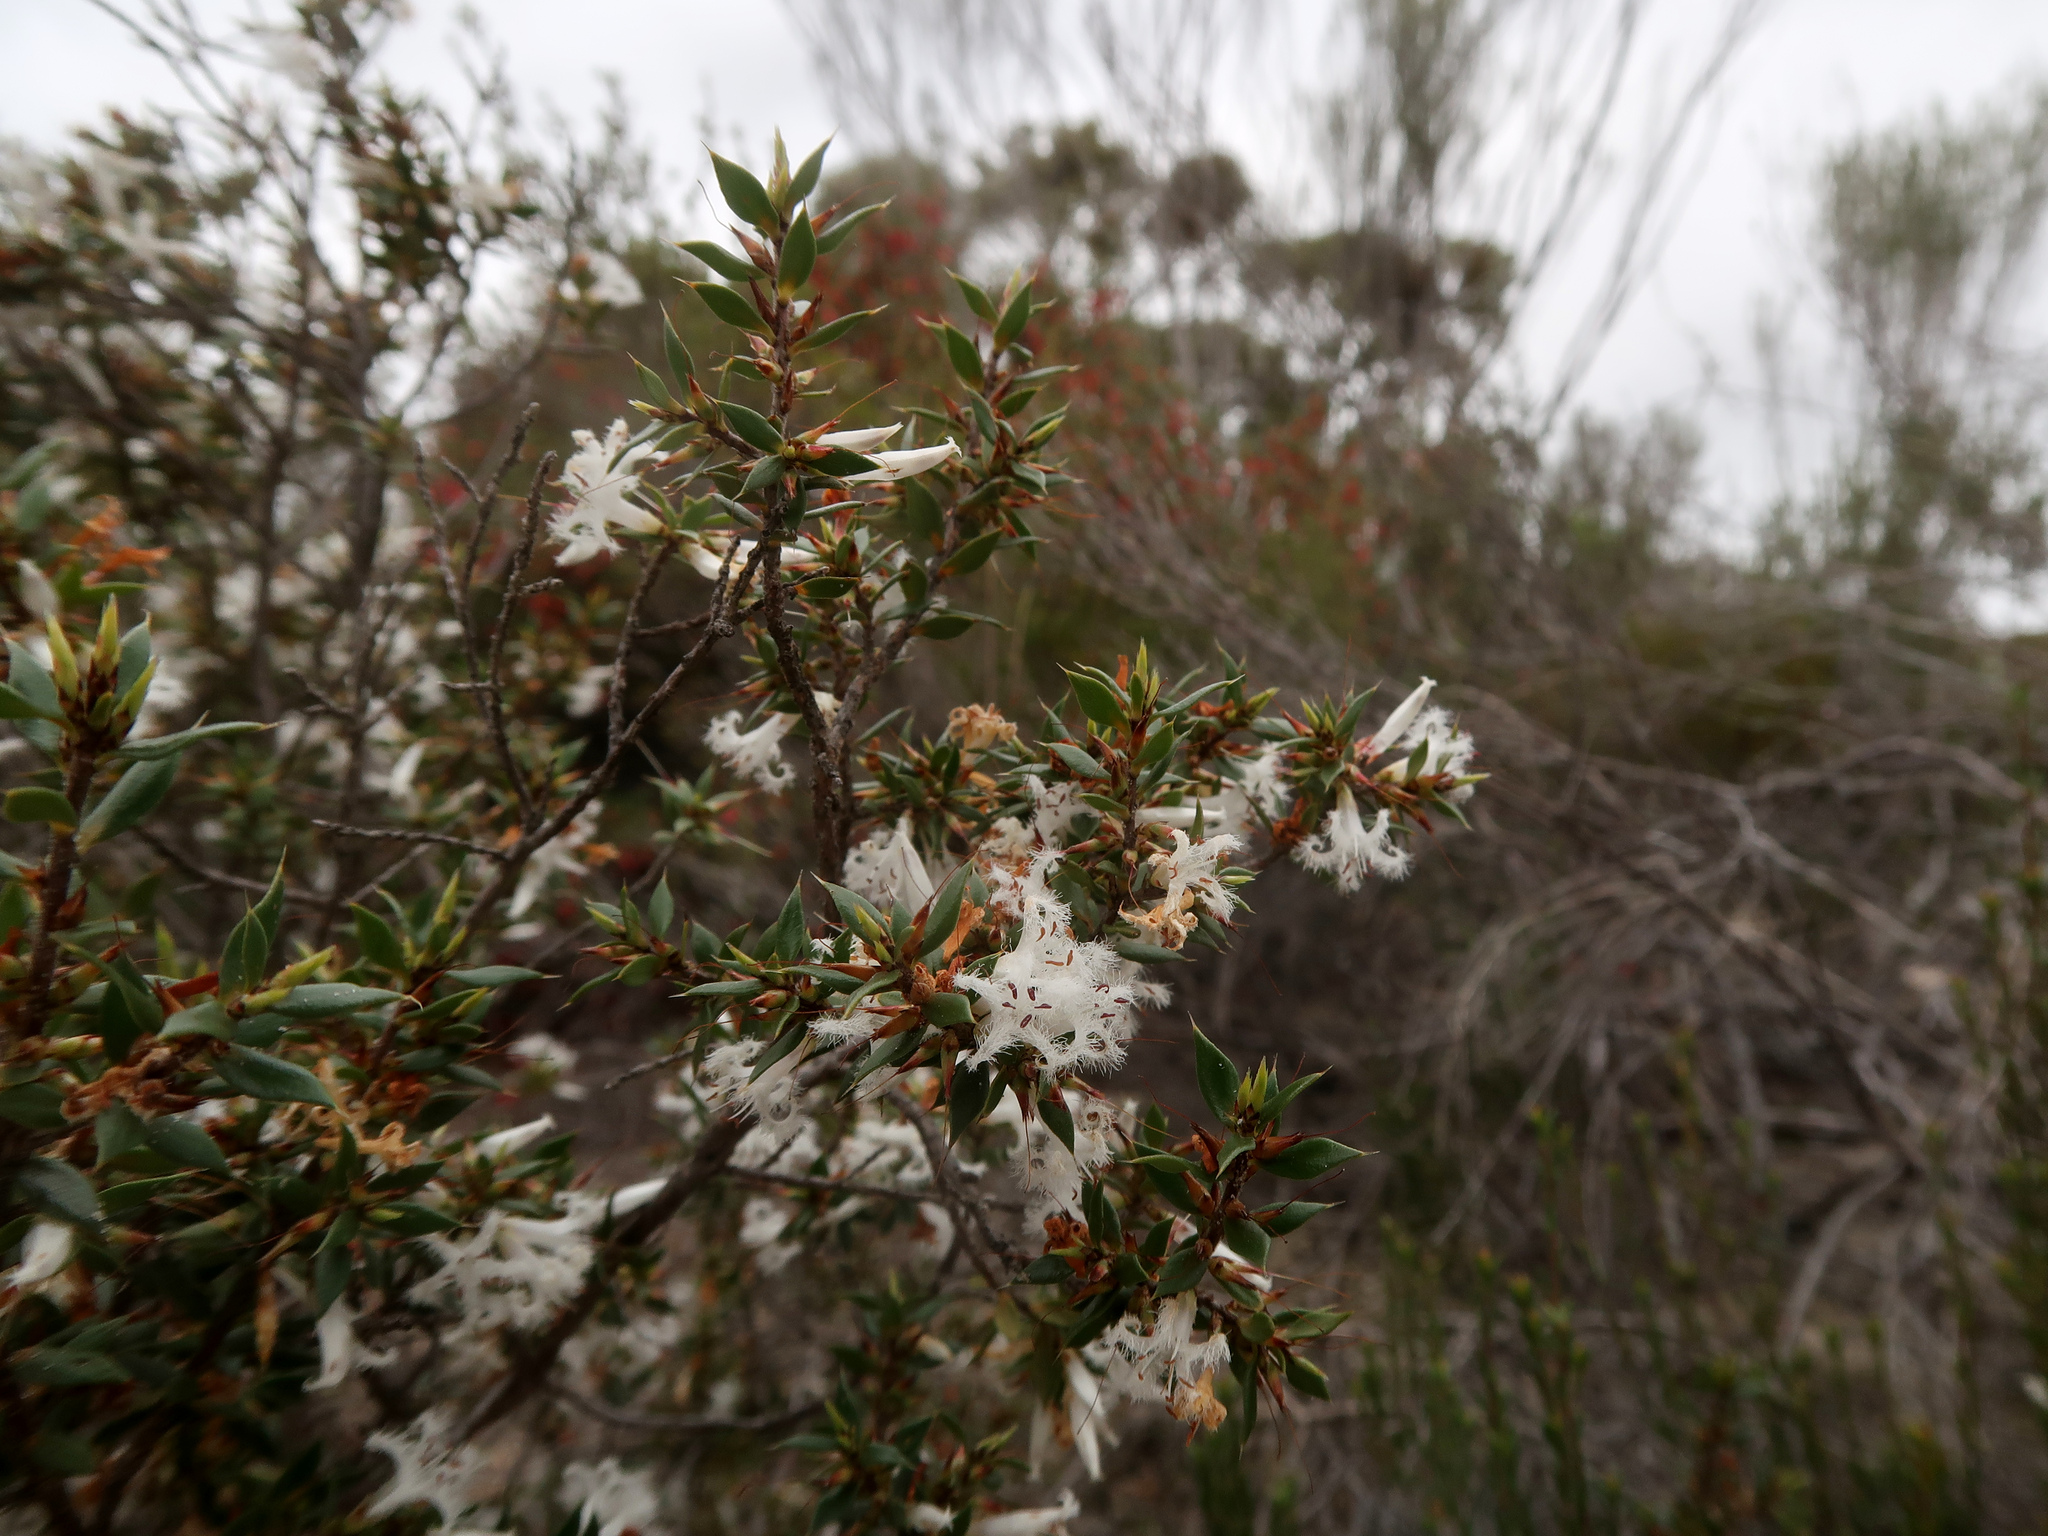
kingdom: Plantae
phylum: Tracheophyta
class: Magnoliopsida
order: Ericales
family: Ericaceae
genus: Styphelia
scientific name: Styphelia exarrhena
